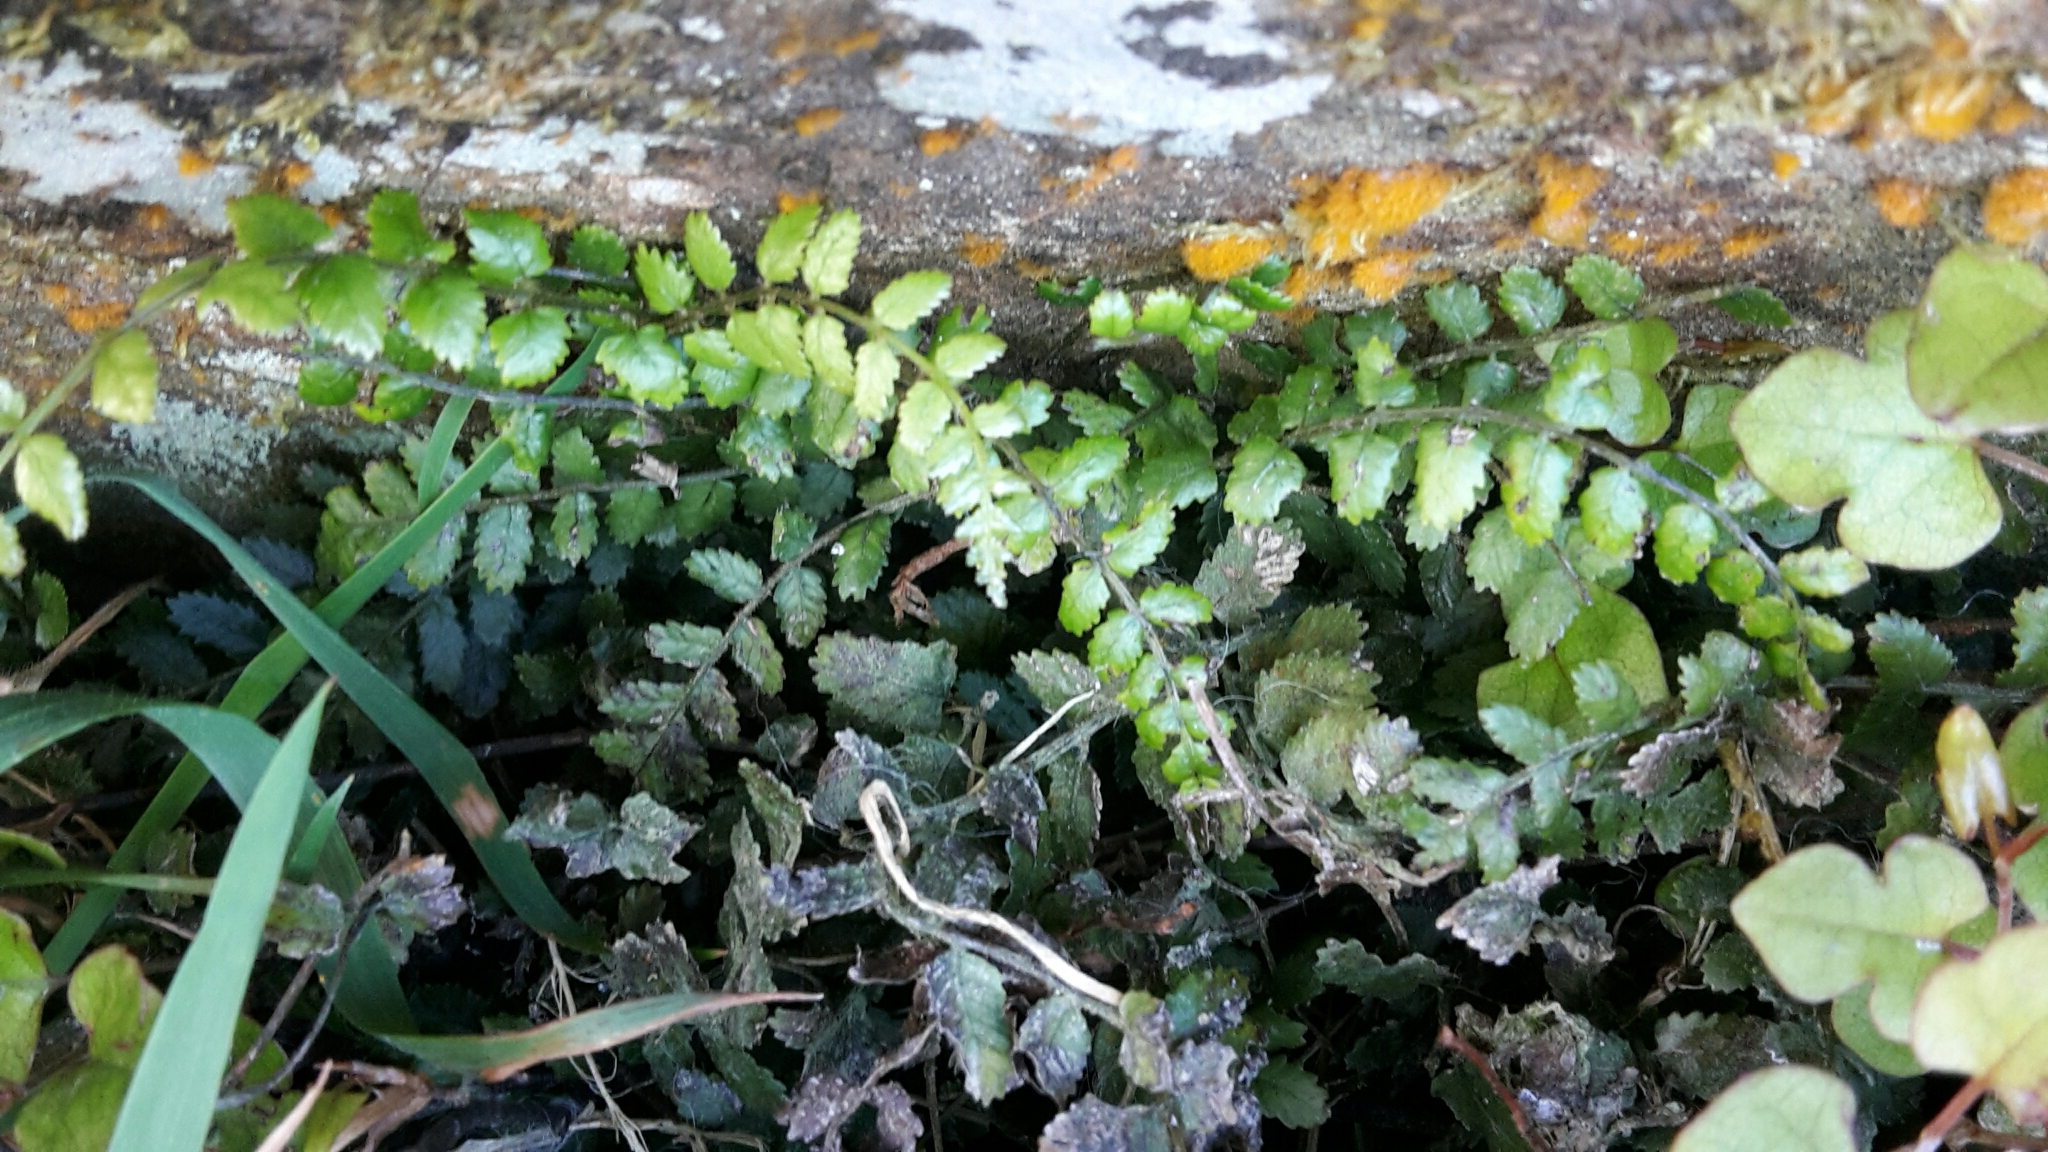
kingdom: Plantae
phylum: Tracheophyta
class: Polypodiopsida
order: Polypodiales
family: Blechnaceae
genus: Icarus
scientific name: Icarus filiformis
